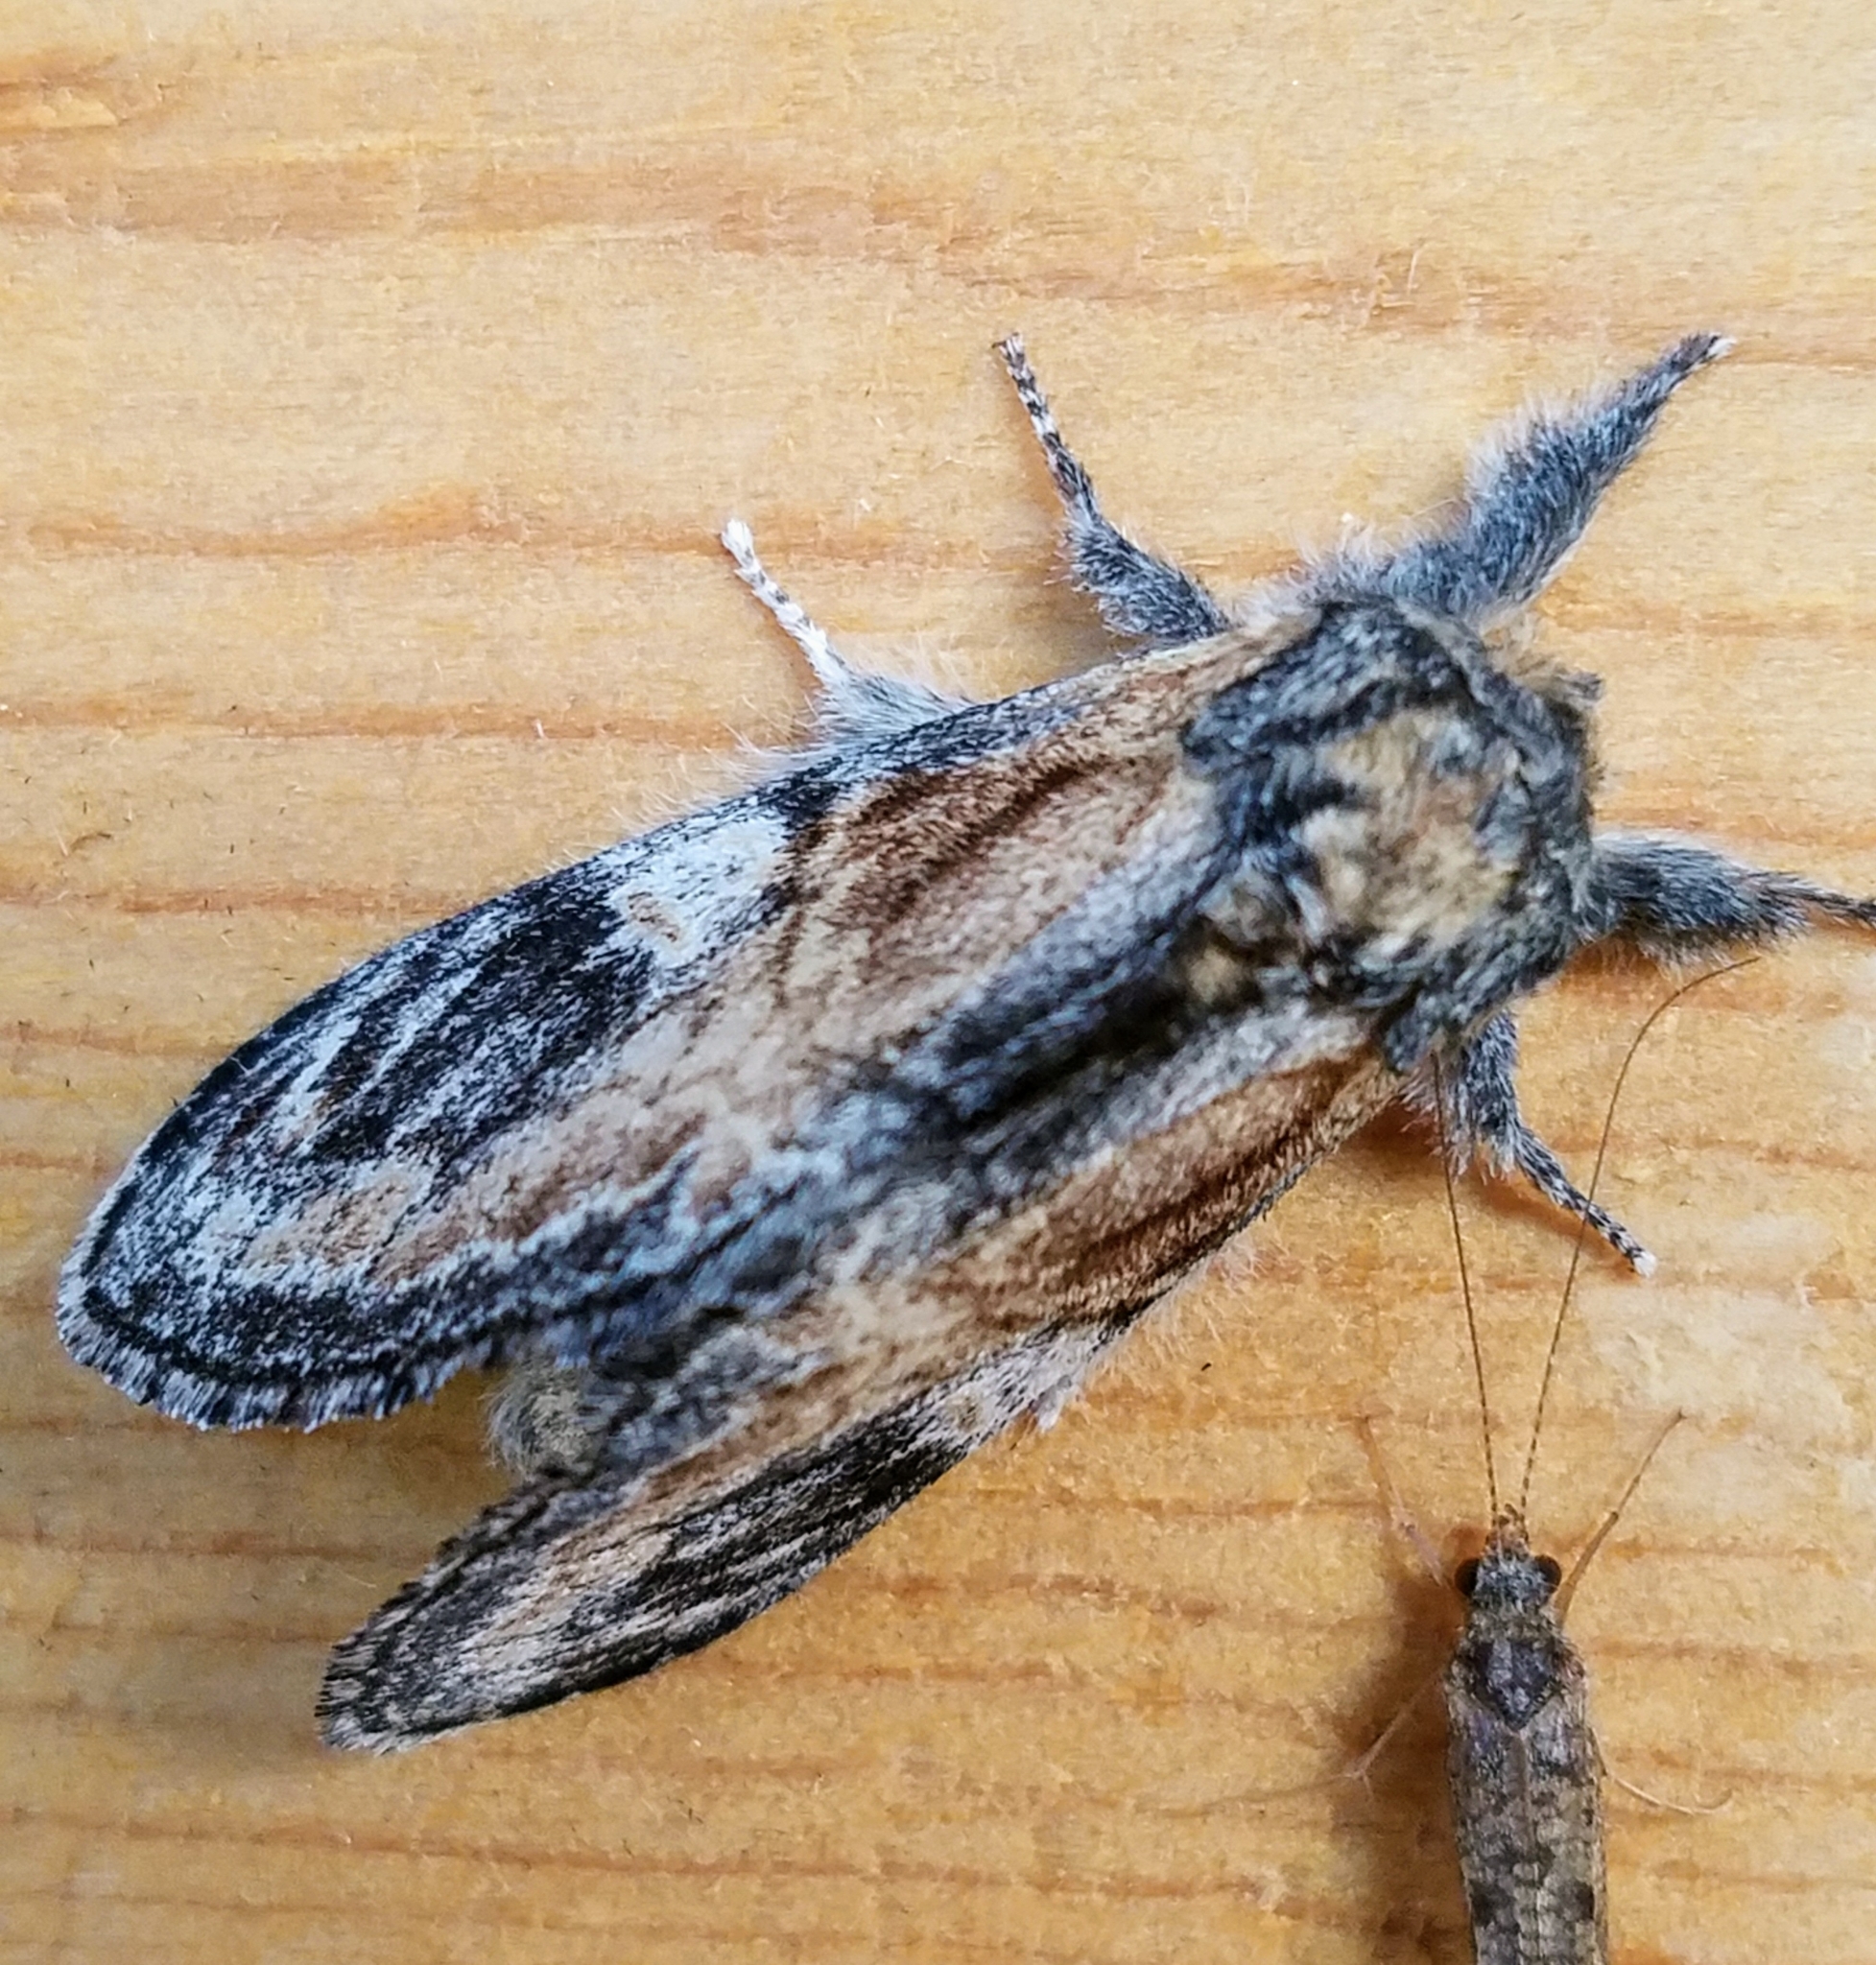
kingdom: Animalia
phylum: Arthropoda
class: Insecta
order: Lepidoptera
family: Notodontidae
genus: Notodonta
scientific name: Notodonta
